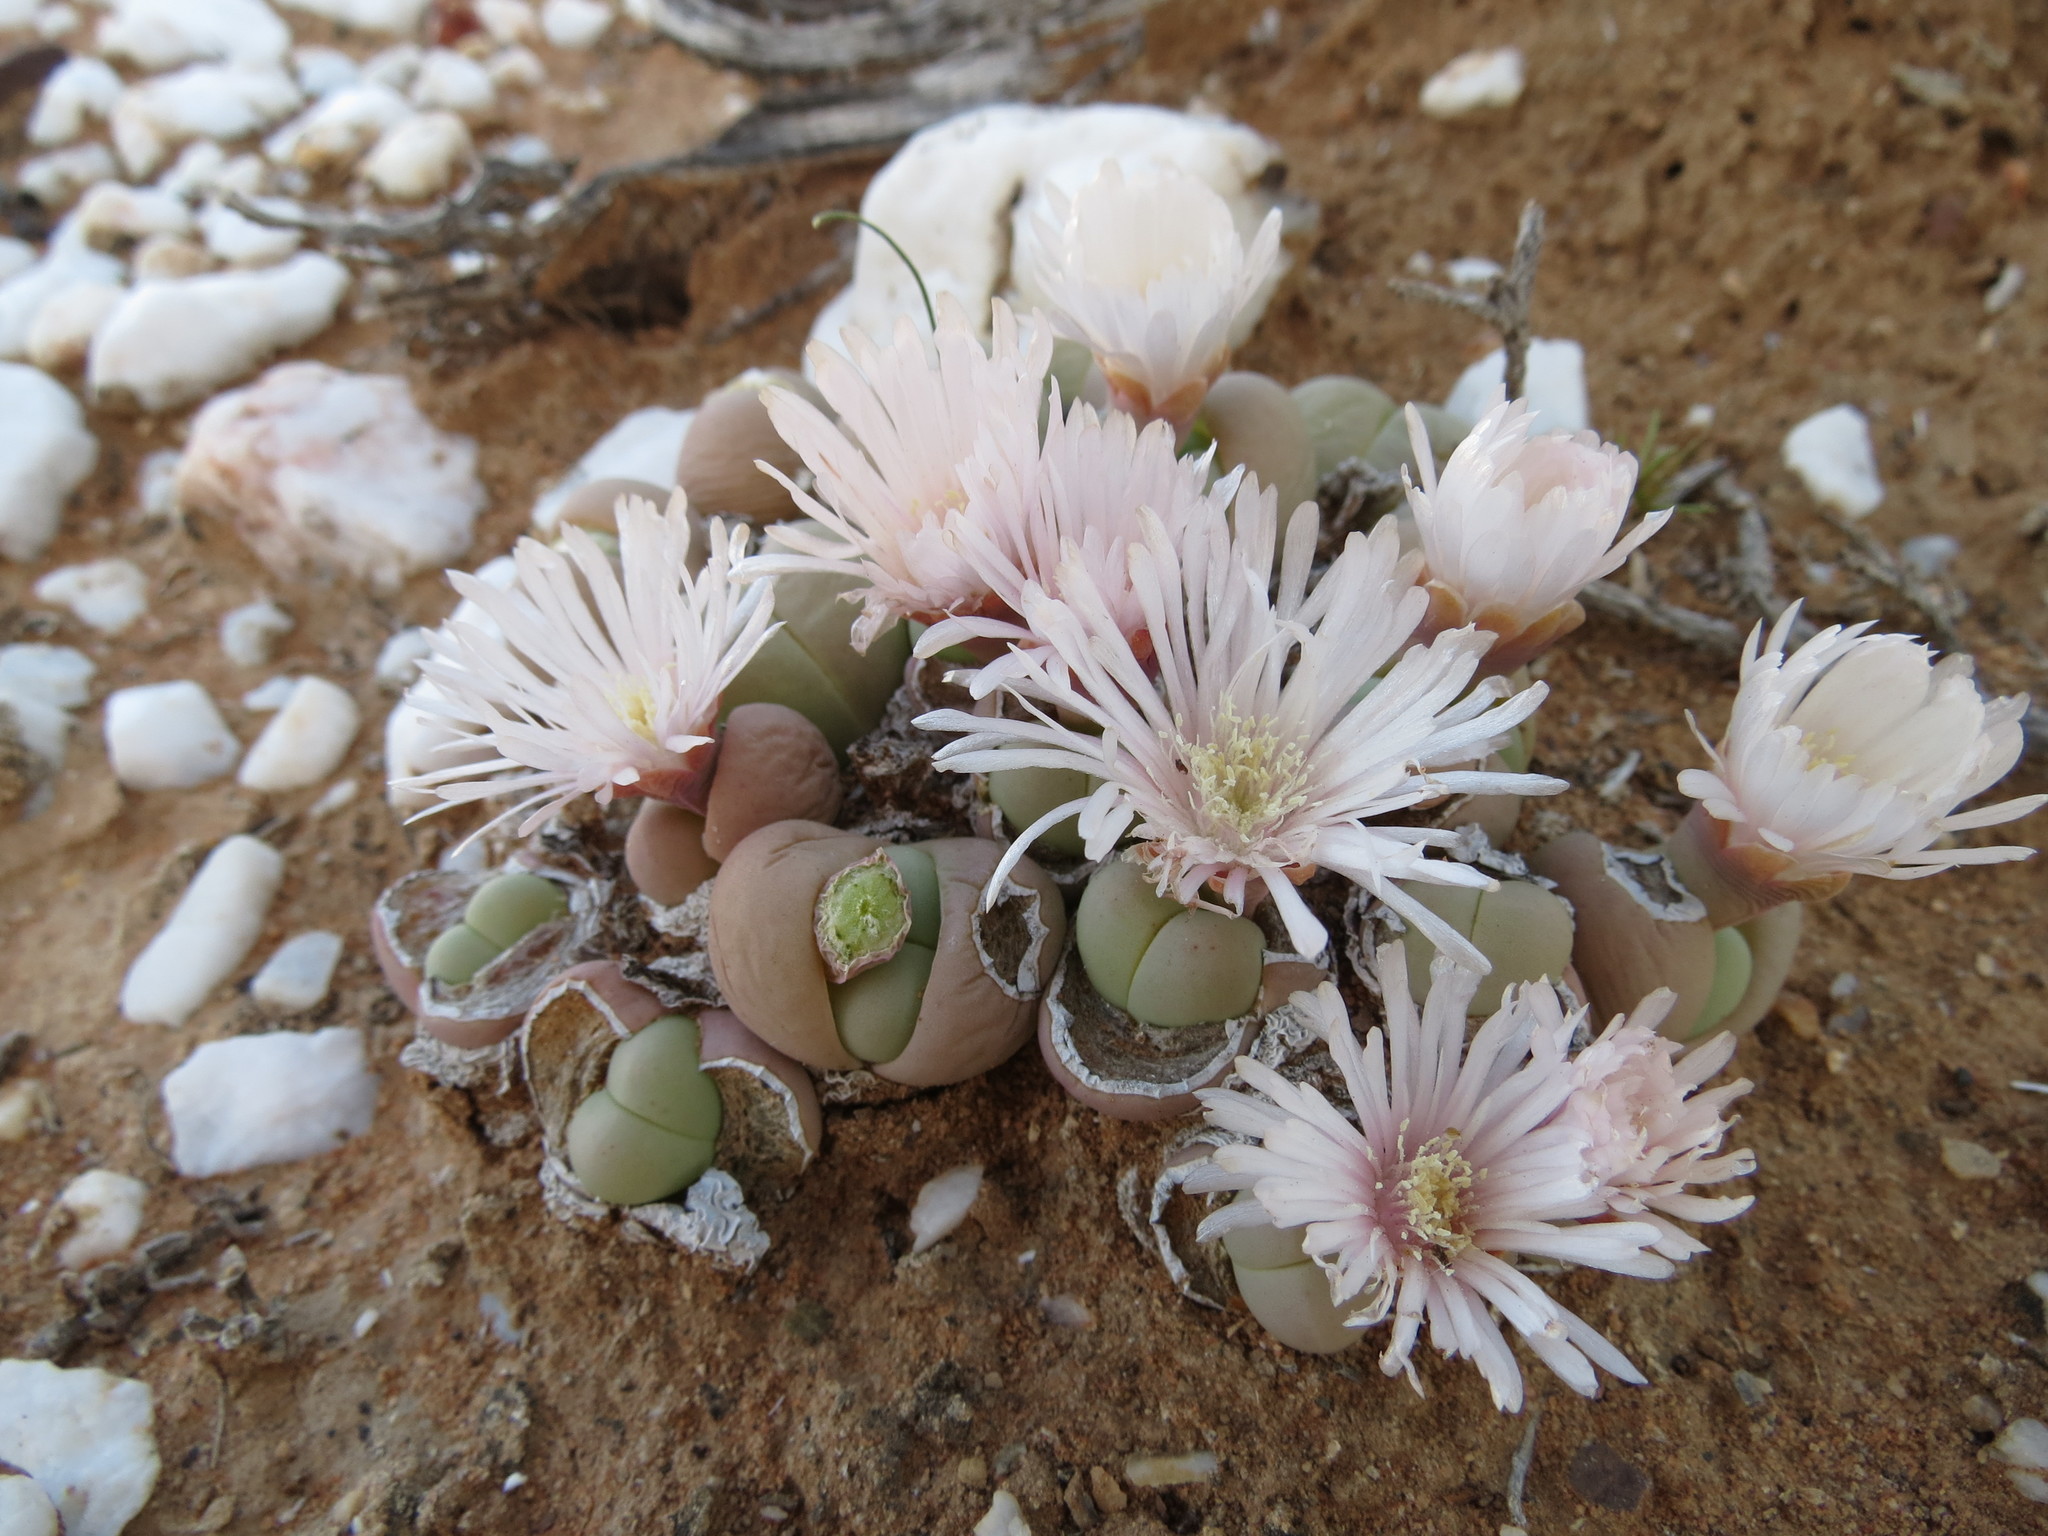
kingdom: Plantae
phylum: Tracheophyta
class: Magnoliopsida
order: Caryophyllales
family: Aizoaceae
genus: Gibbaeum
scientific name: Gibbaeum heathii
